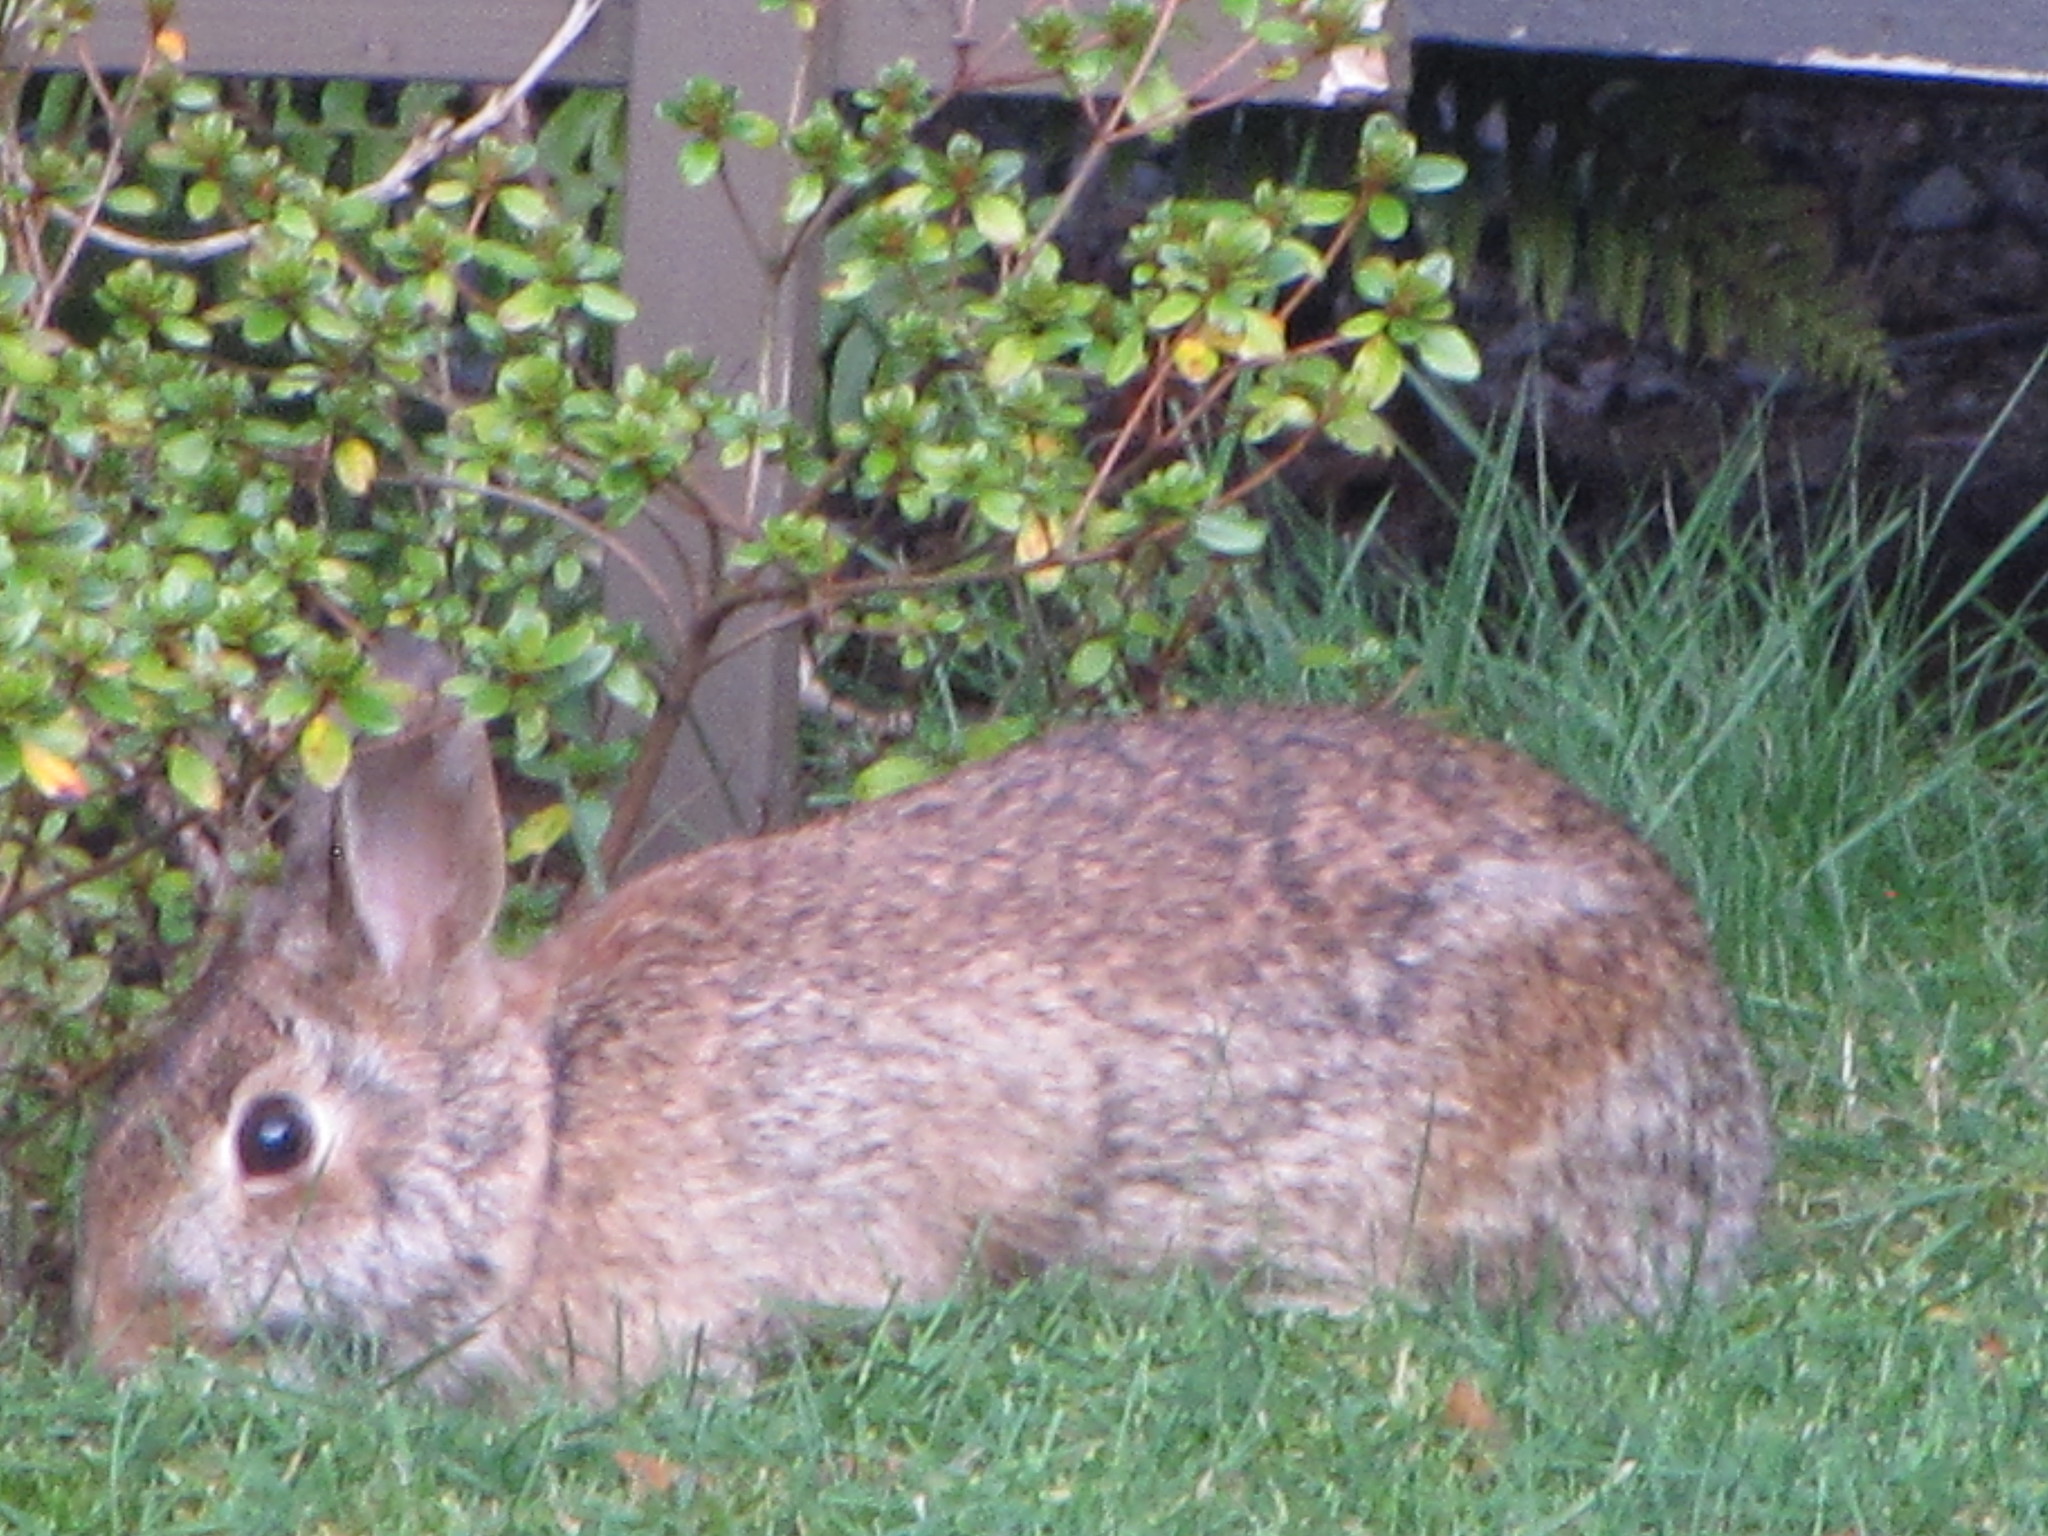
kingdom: Animalia
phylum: Chordata
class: Mammalia
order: Lagomorpha
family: Leporidae
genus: Sylvilagus
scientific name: Sylvilagus floridanus
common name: Eastern cottontail
